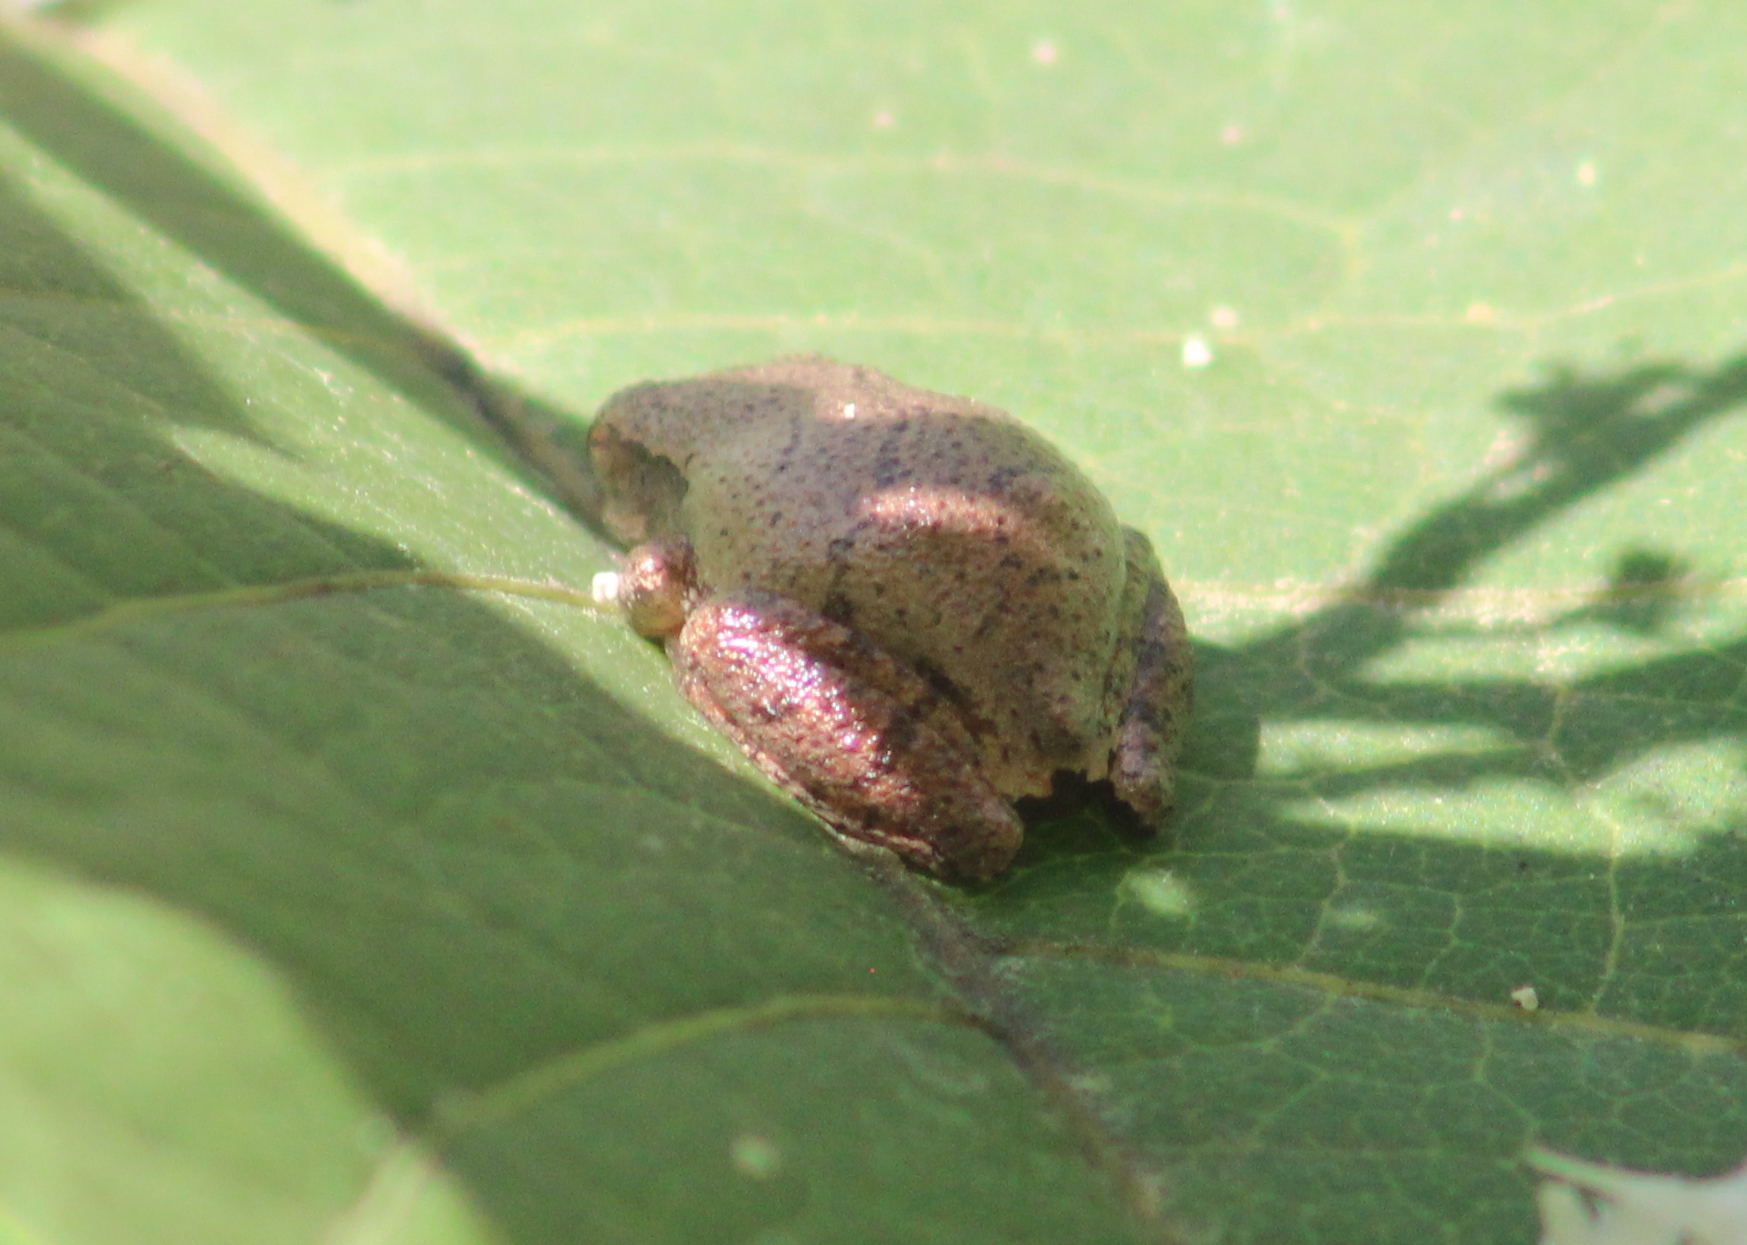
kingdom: Animalia
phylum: Chordata
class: Amphibia
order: Anura
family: Hylidae
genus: Pseudacris
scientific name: Pseudacris crucifer
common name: Spring peeper
